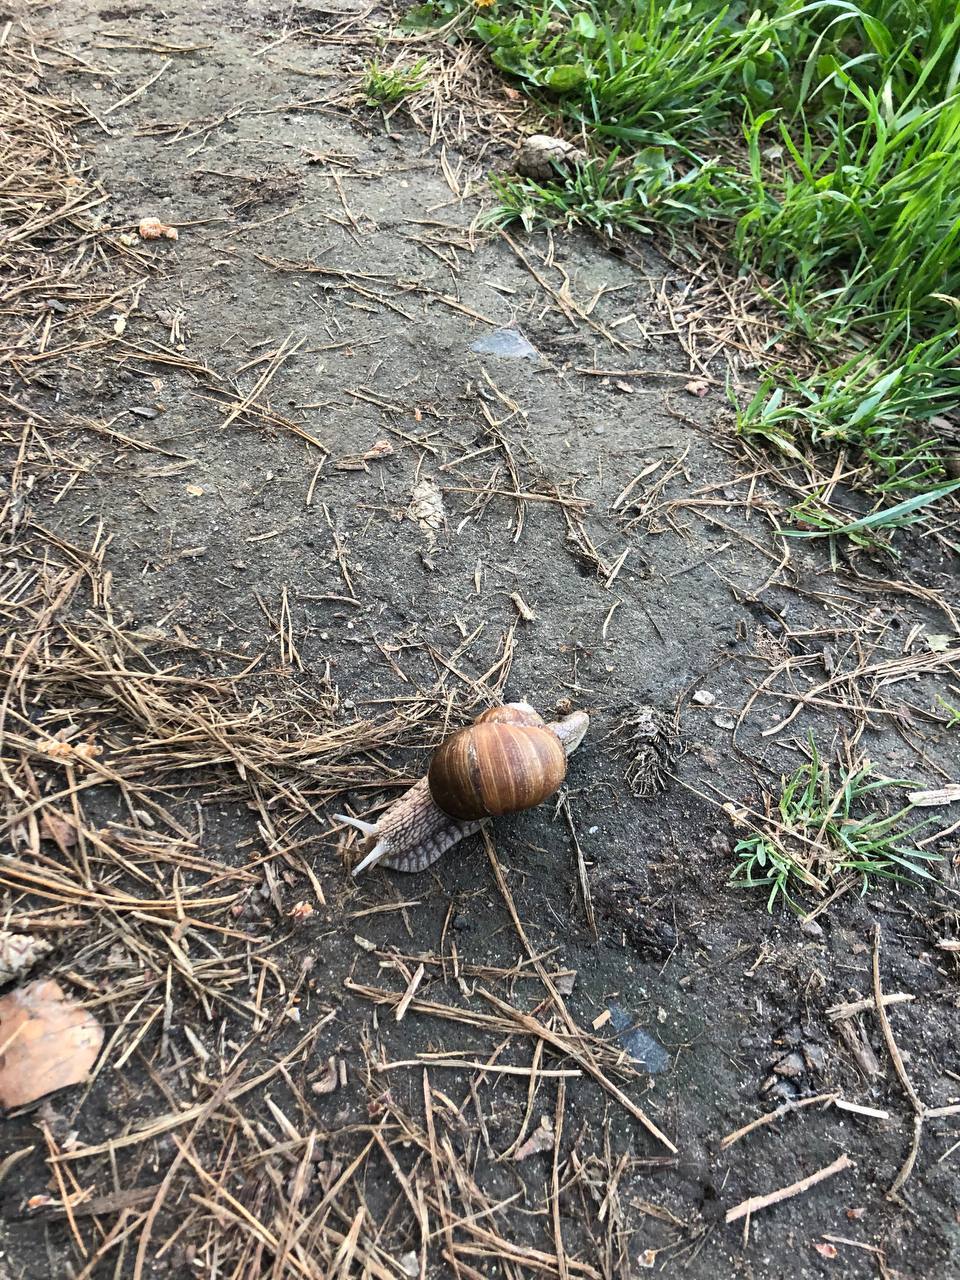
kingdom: Animalia
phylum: Mollusca
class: Gastropoda
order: Stylommatophora
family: Helicidae
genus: Helix
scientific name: Helix pomatia
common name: Roman snail
